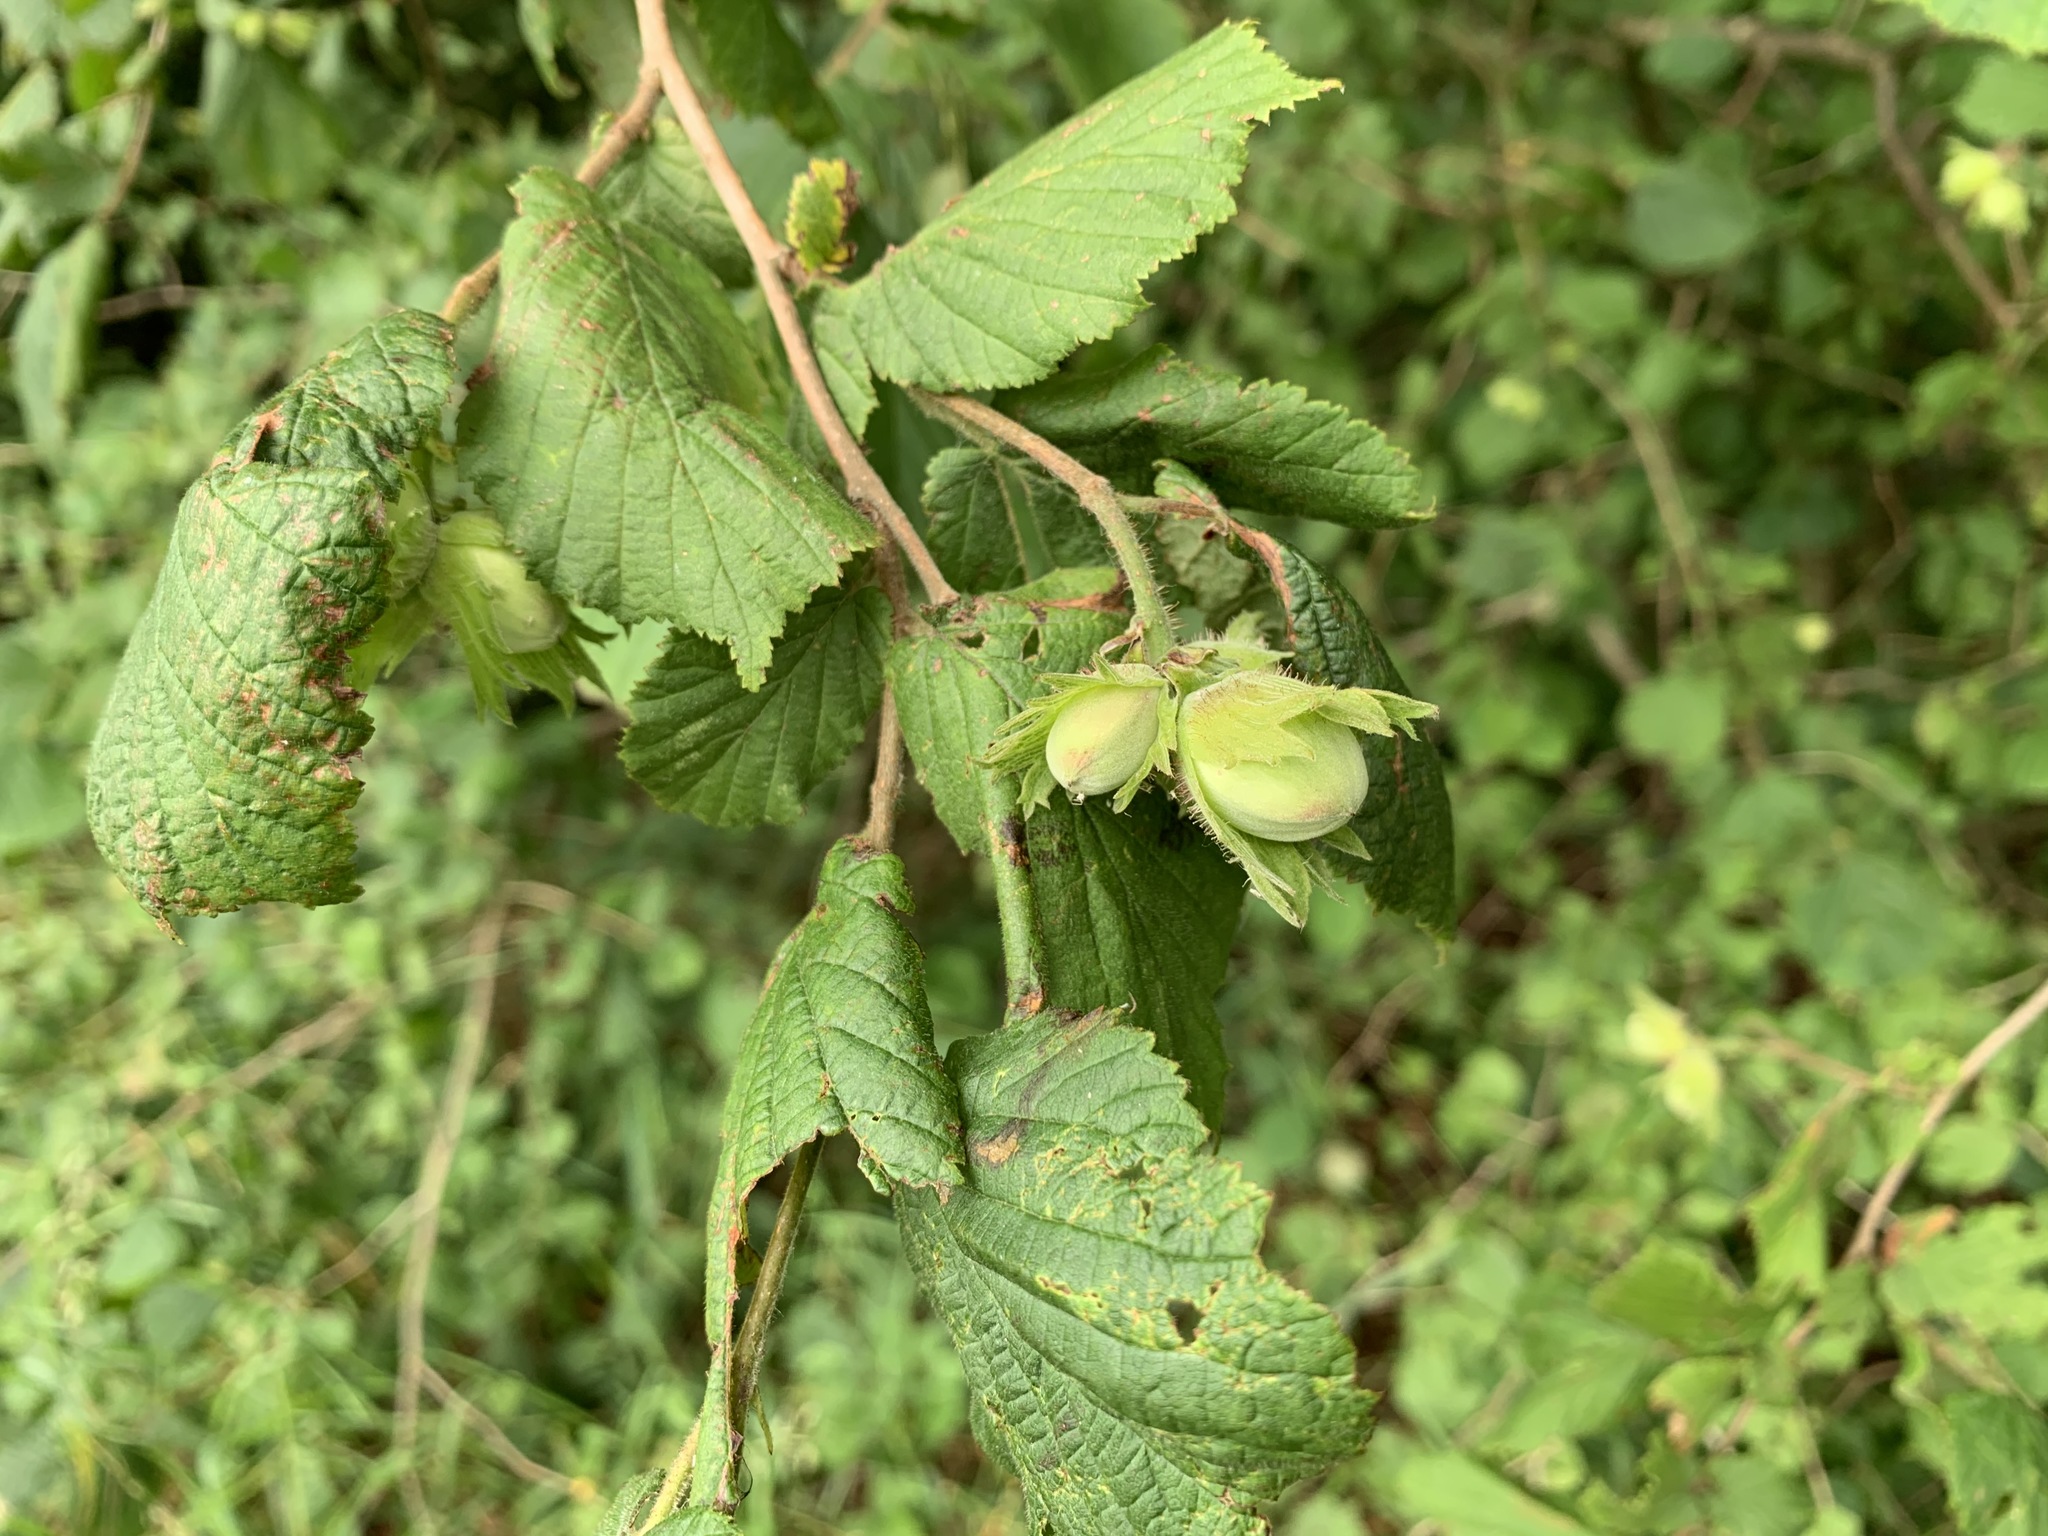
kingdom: Plantae
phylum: Tracheophyta
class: Magnoliopsida
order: Fagales
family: Betulaceae
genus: Corylus
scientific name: Corylus avellana
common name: European hazel
